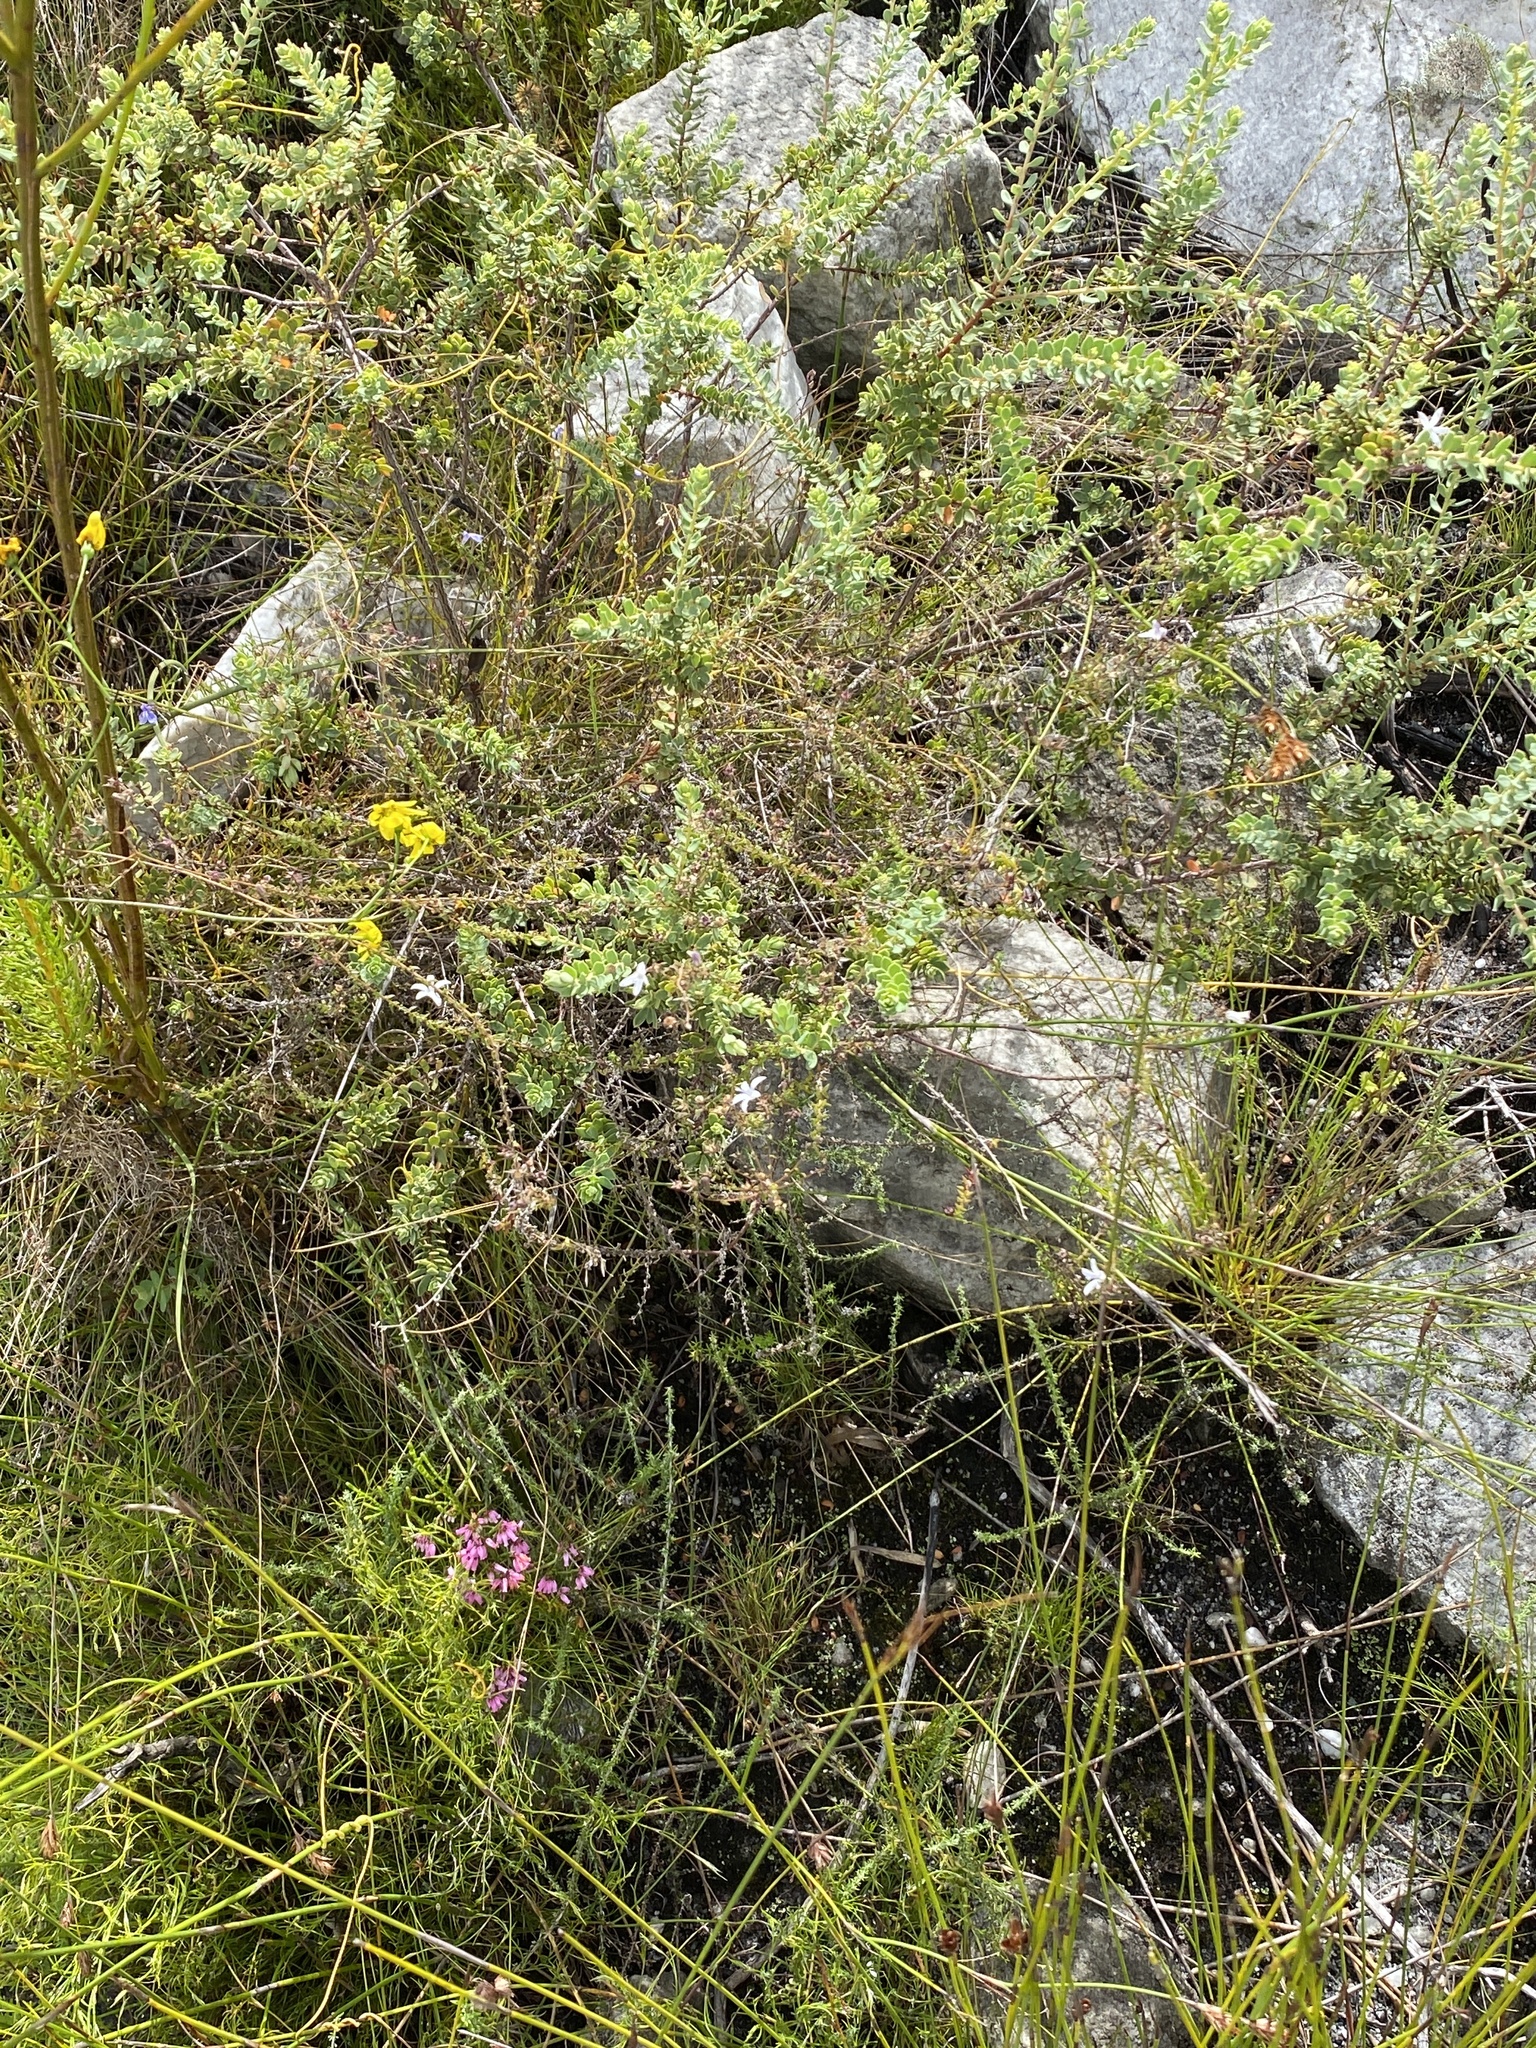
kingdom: Plantae
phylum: Tracheophyta
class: Magnoliopsida
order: Asterales
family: Campanulaceae
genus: Wahlenbergia
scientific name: Wahlenbergia loddigesii
